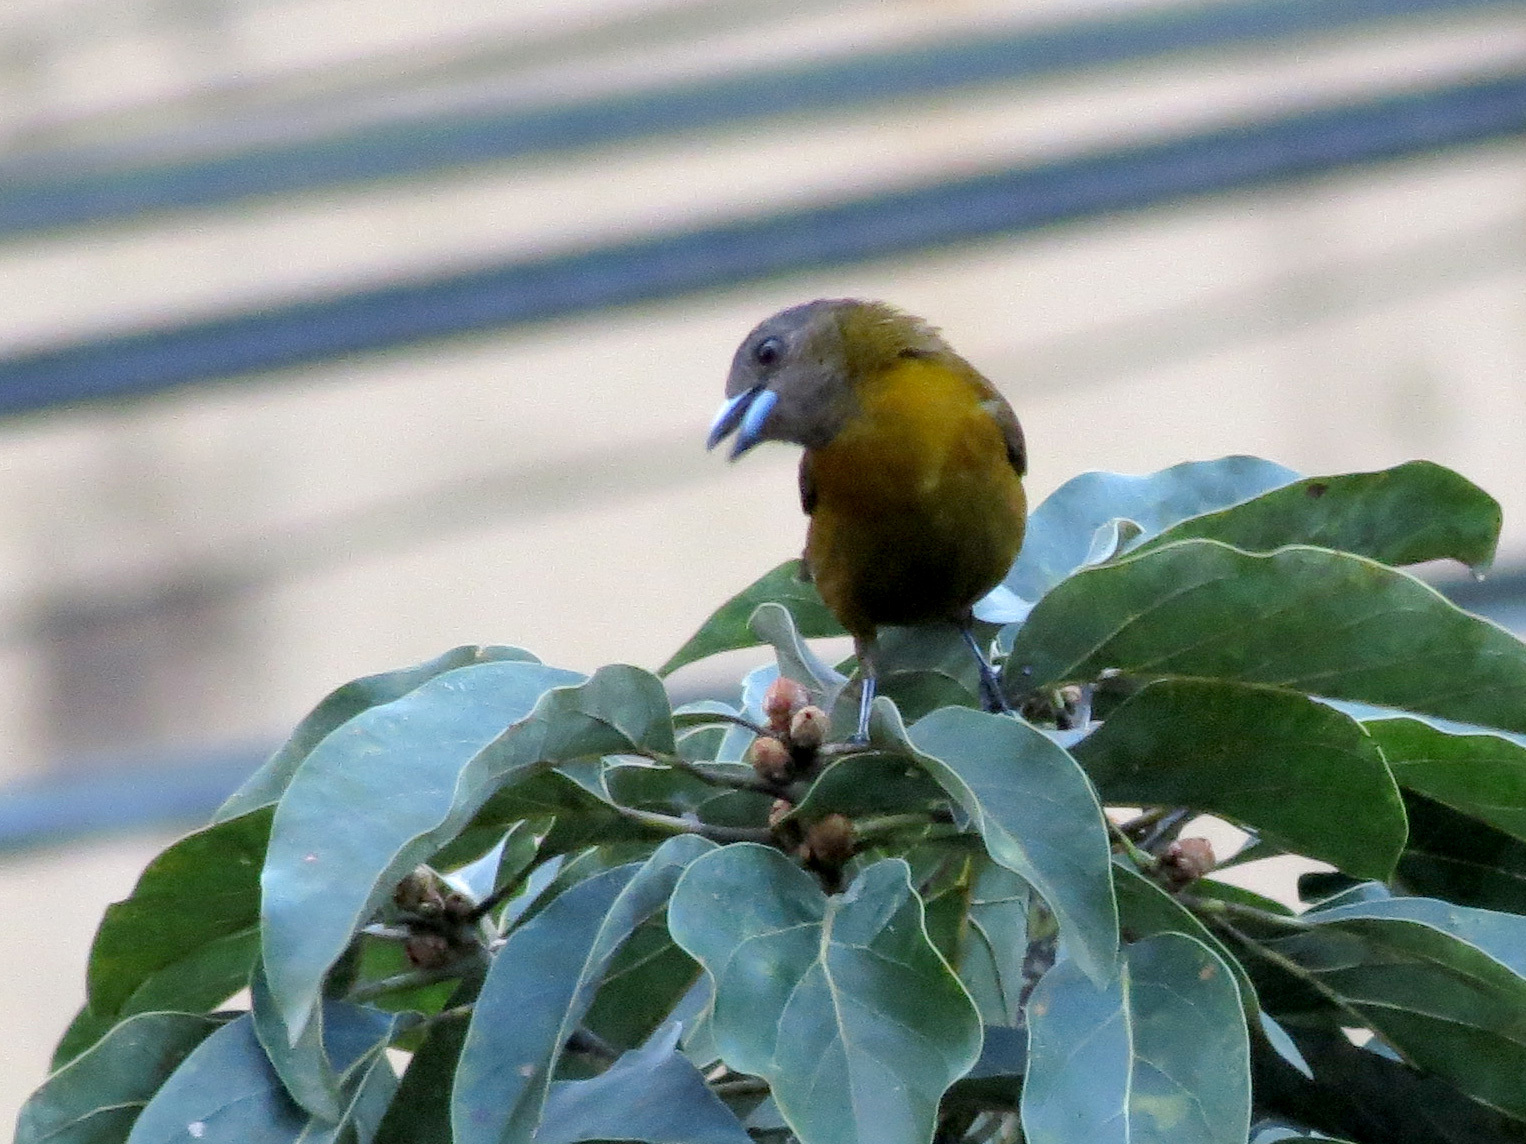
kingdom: Animalia
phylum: Chordata
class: Aves
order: Passeriformes
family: Thraupidae
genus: Ramphocelus
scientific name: Ramphocelus passerinii
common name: Passerini's tanager
